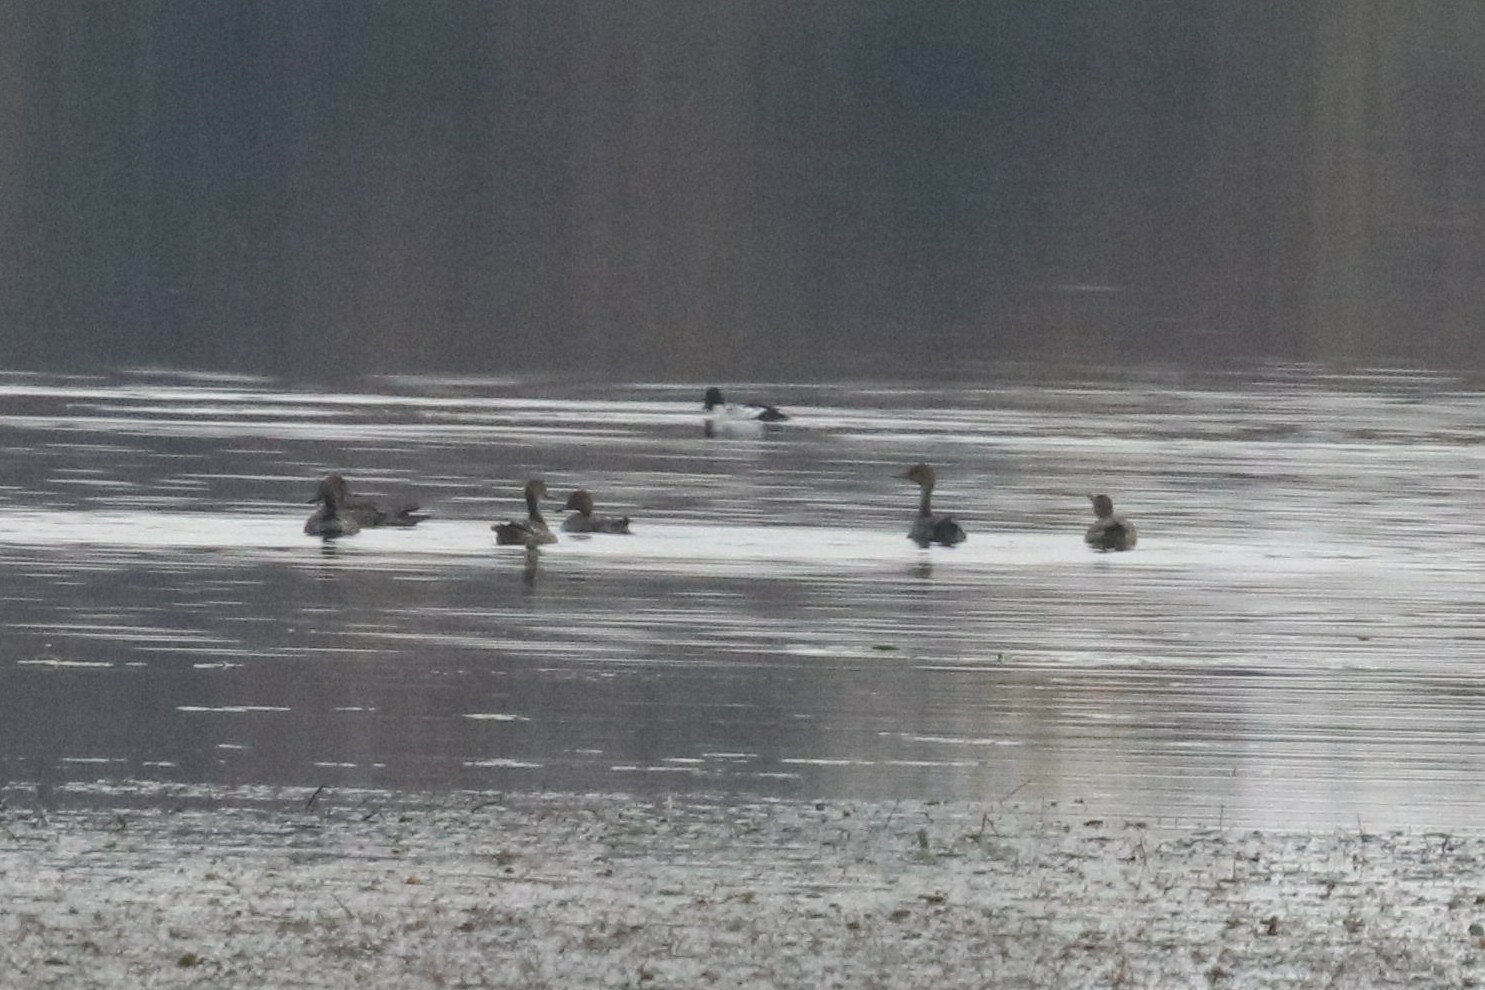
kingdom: Animalia
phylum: Chordata
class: Aves
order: Anseriformes
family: Anatidae
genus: Anas
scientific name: Anas acuta
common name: Northern pintail
